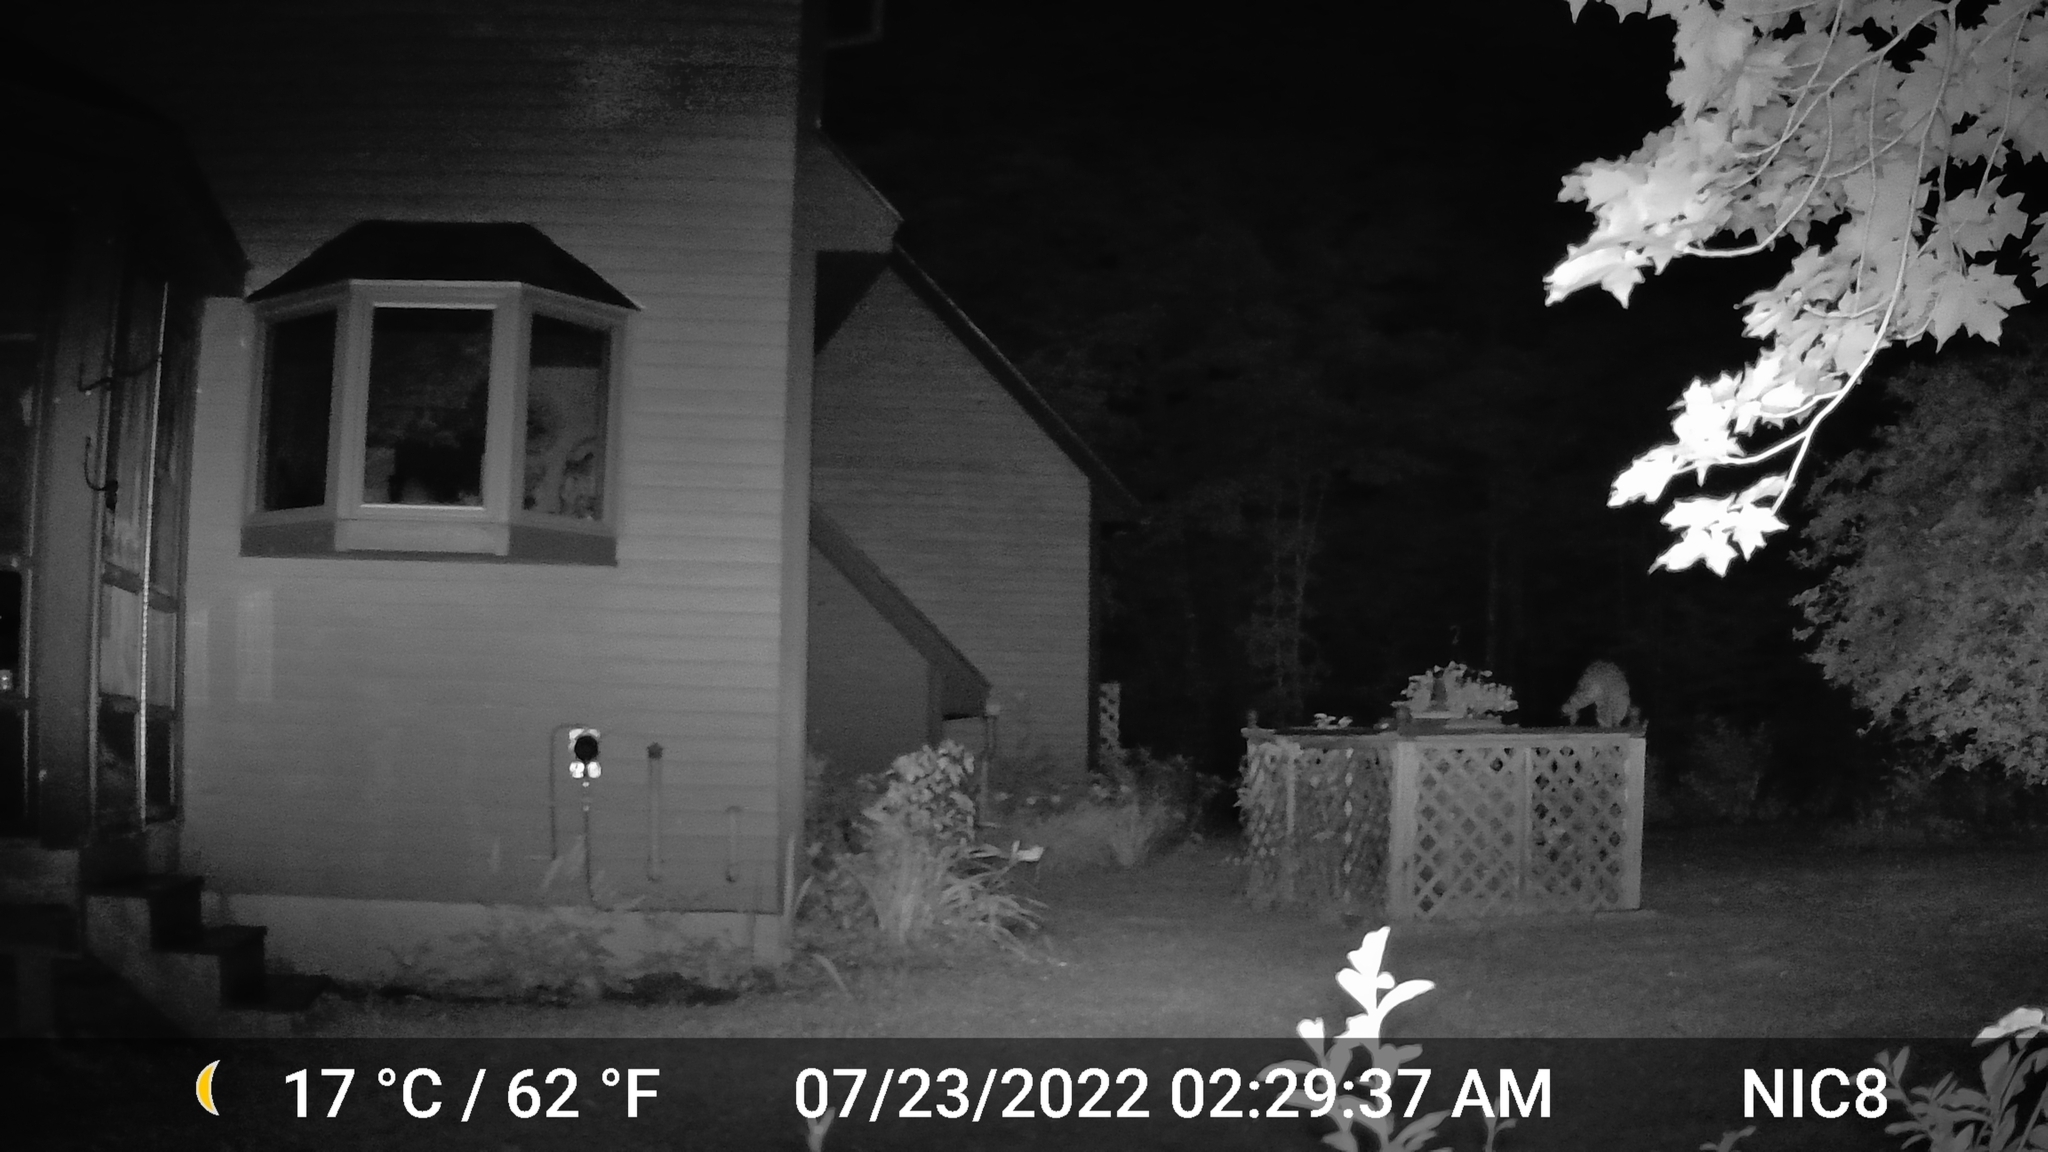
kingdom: Animalia
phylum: Chordata
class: Mammalia
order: Carnivora
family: Procyonidae
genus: Procyon
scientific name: Procyon lotor
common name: Raccoon
